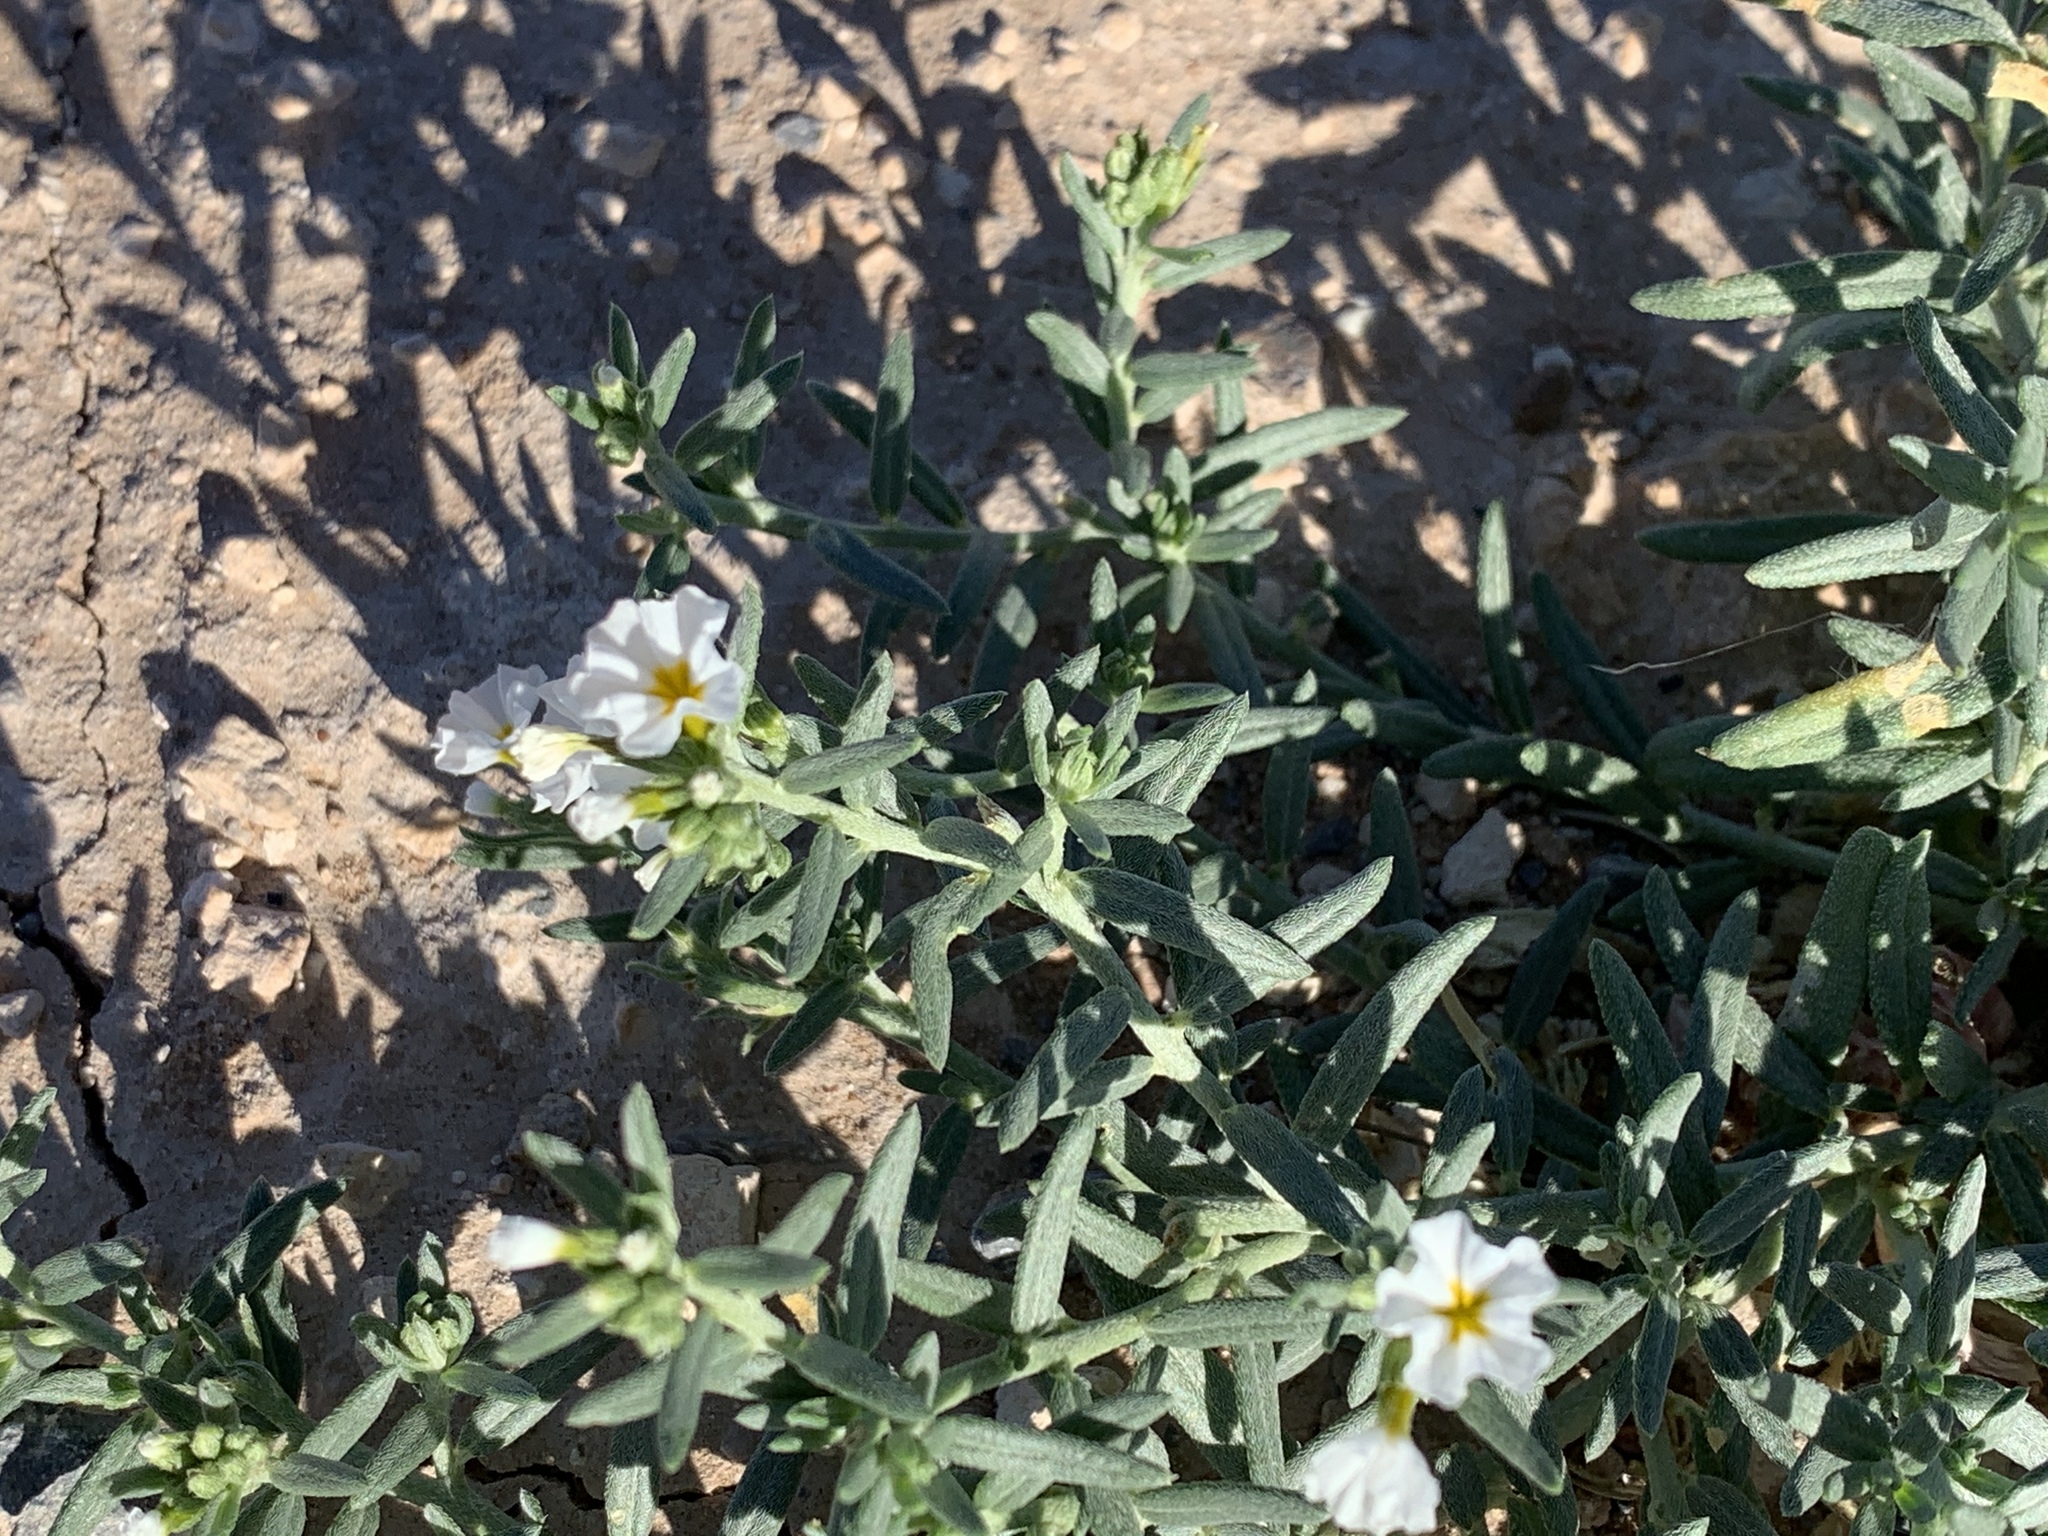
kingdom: Plantae
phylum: Tracheophyta
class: Magnoliopsida
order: Boraginales
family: Heliotropiaceae
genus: Euploca
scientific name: Euploca greggii
